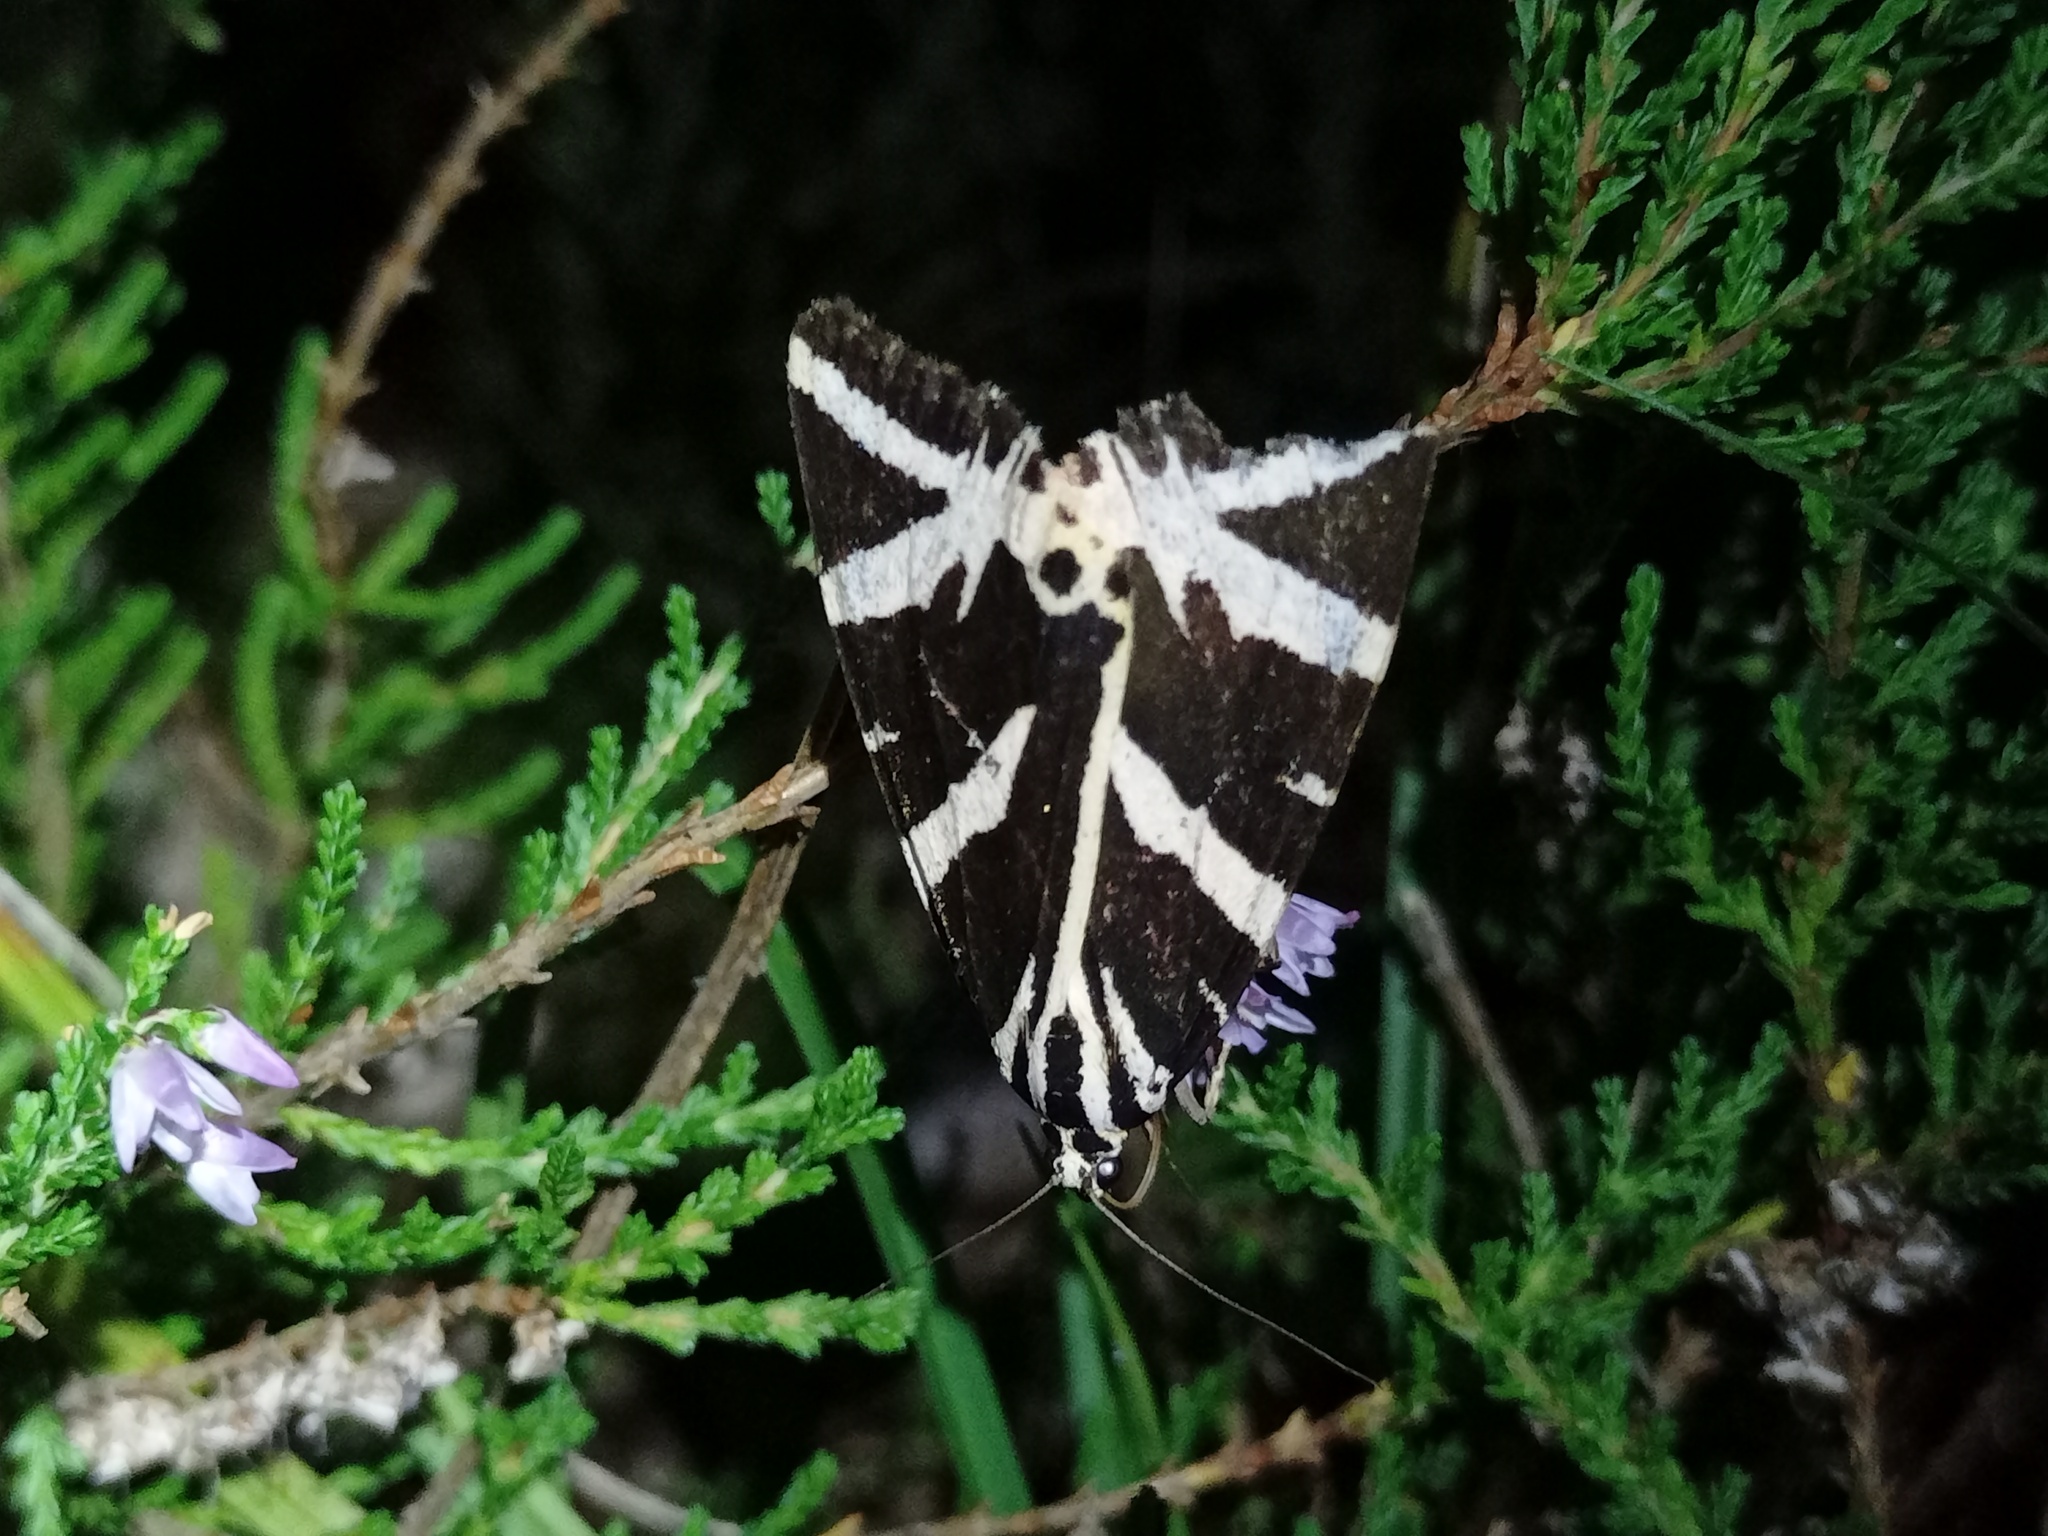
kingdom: Animalia
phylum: Arthropoda
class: Insecta
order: Lepidoptera
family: Erebidae
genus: Euplagia
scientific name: Euplagia quadripunctaria
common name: Jersey tiger
